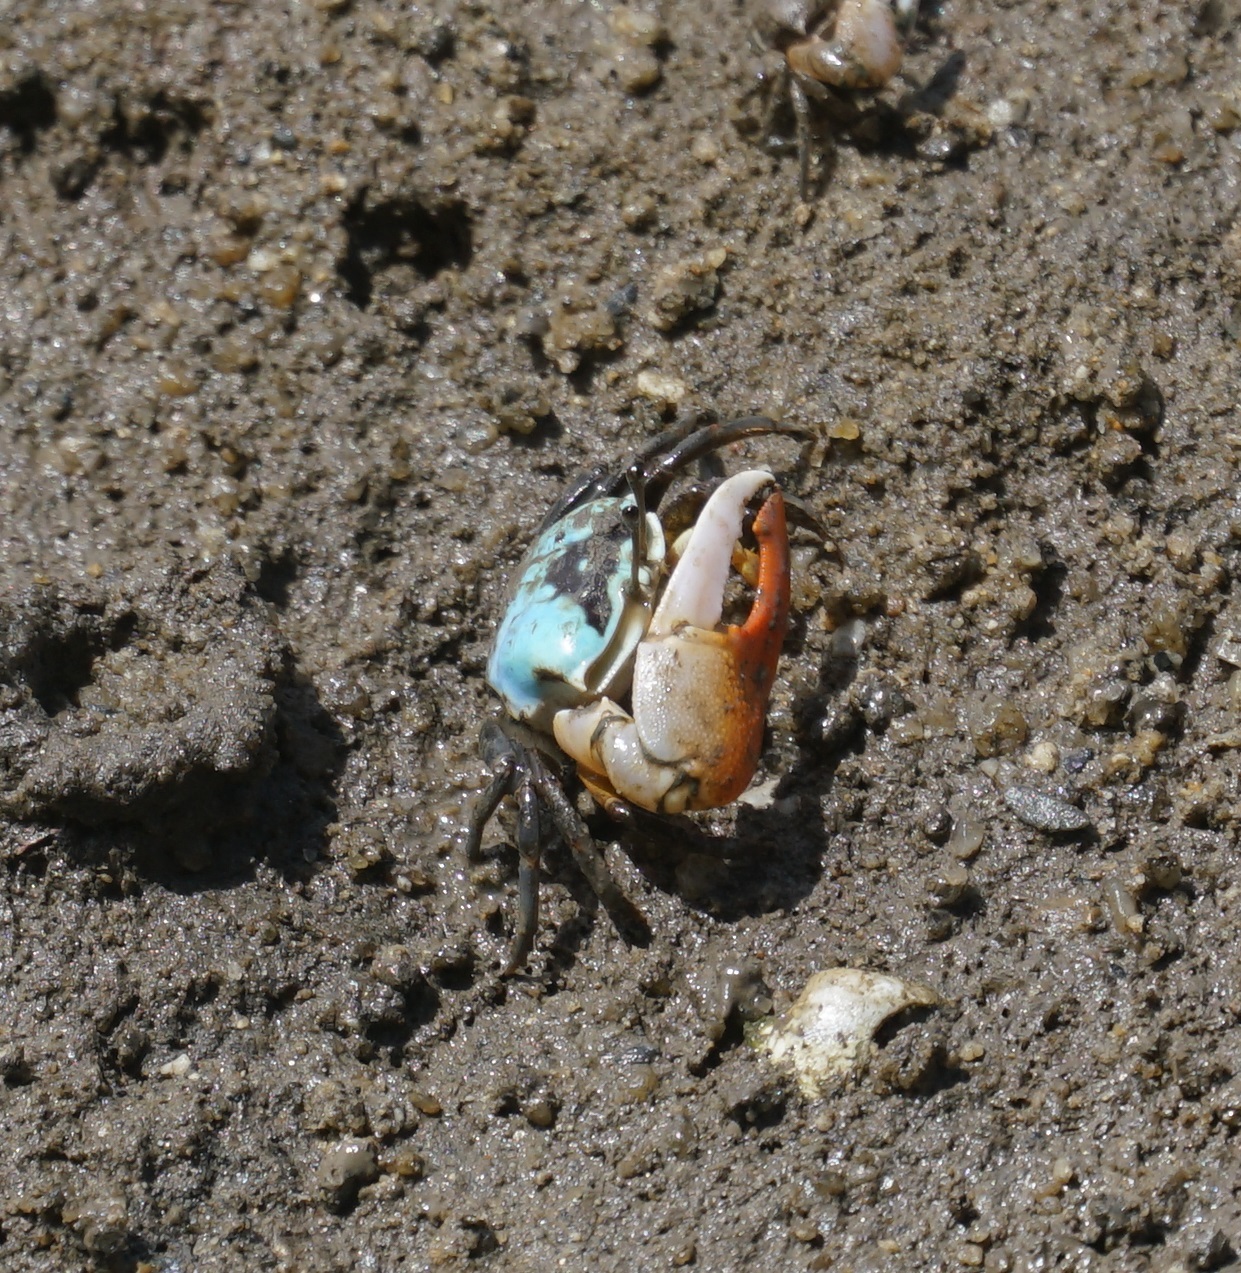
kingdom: Animalia
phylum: Arthropoda
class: Malacostraca
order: Decapoda
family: Ocypodidae
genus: Gelasimus
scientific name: Gelasimus vomeris
